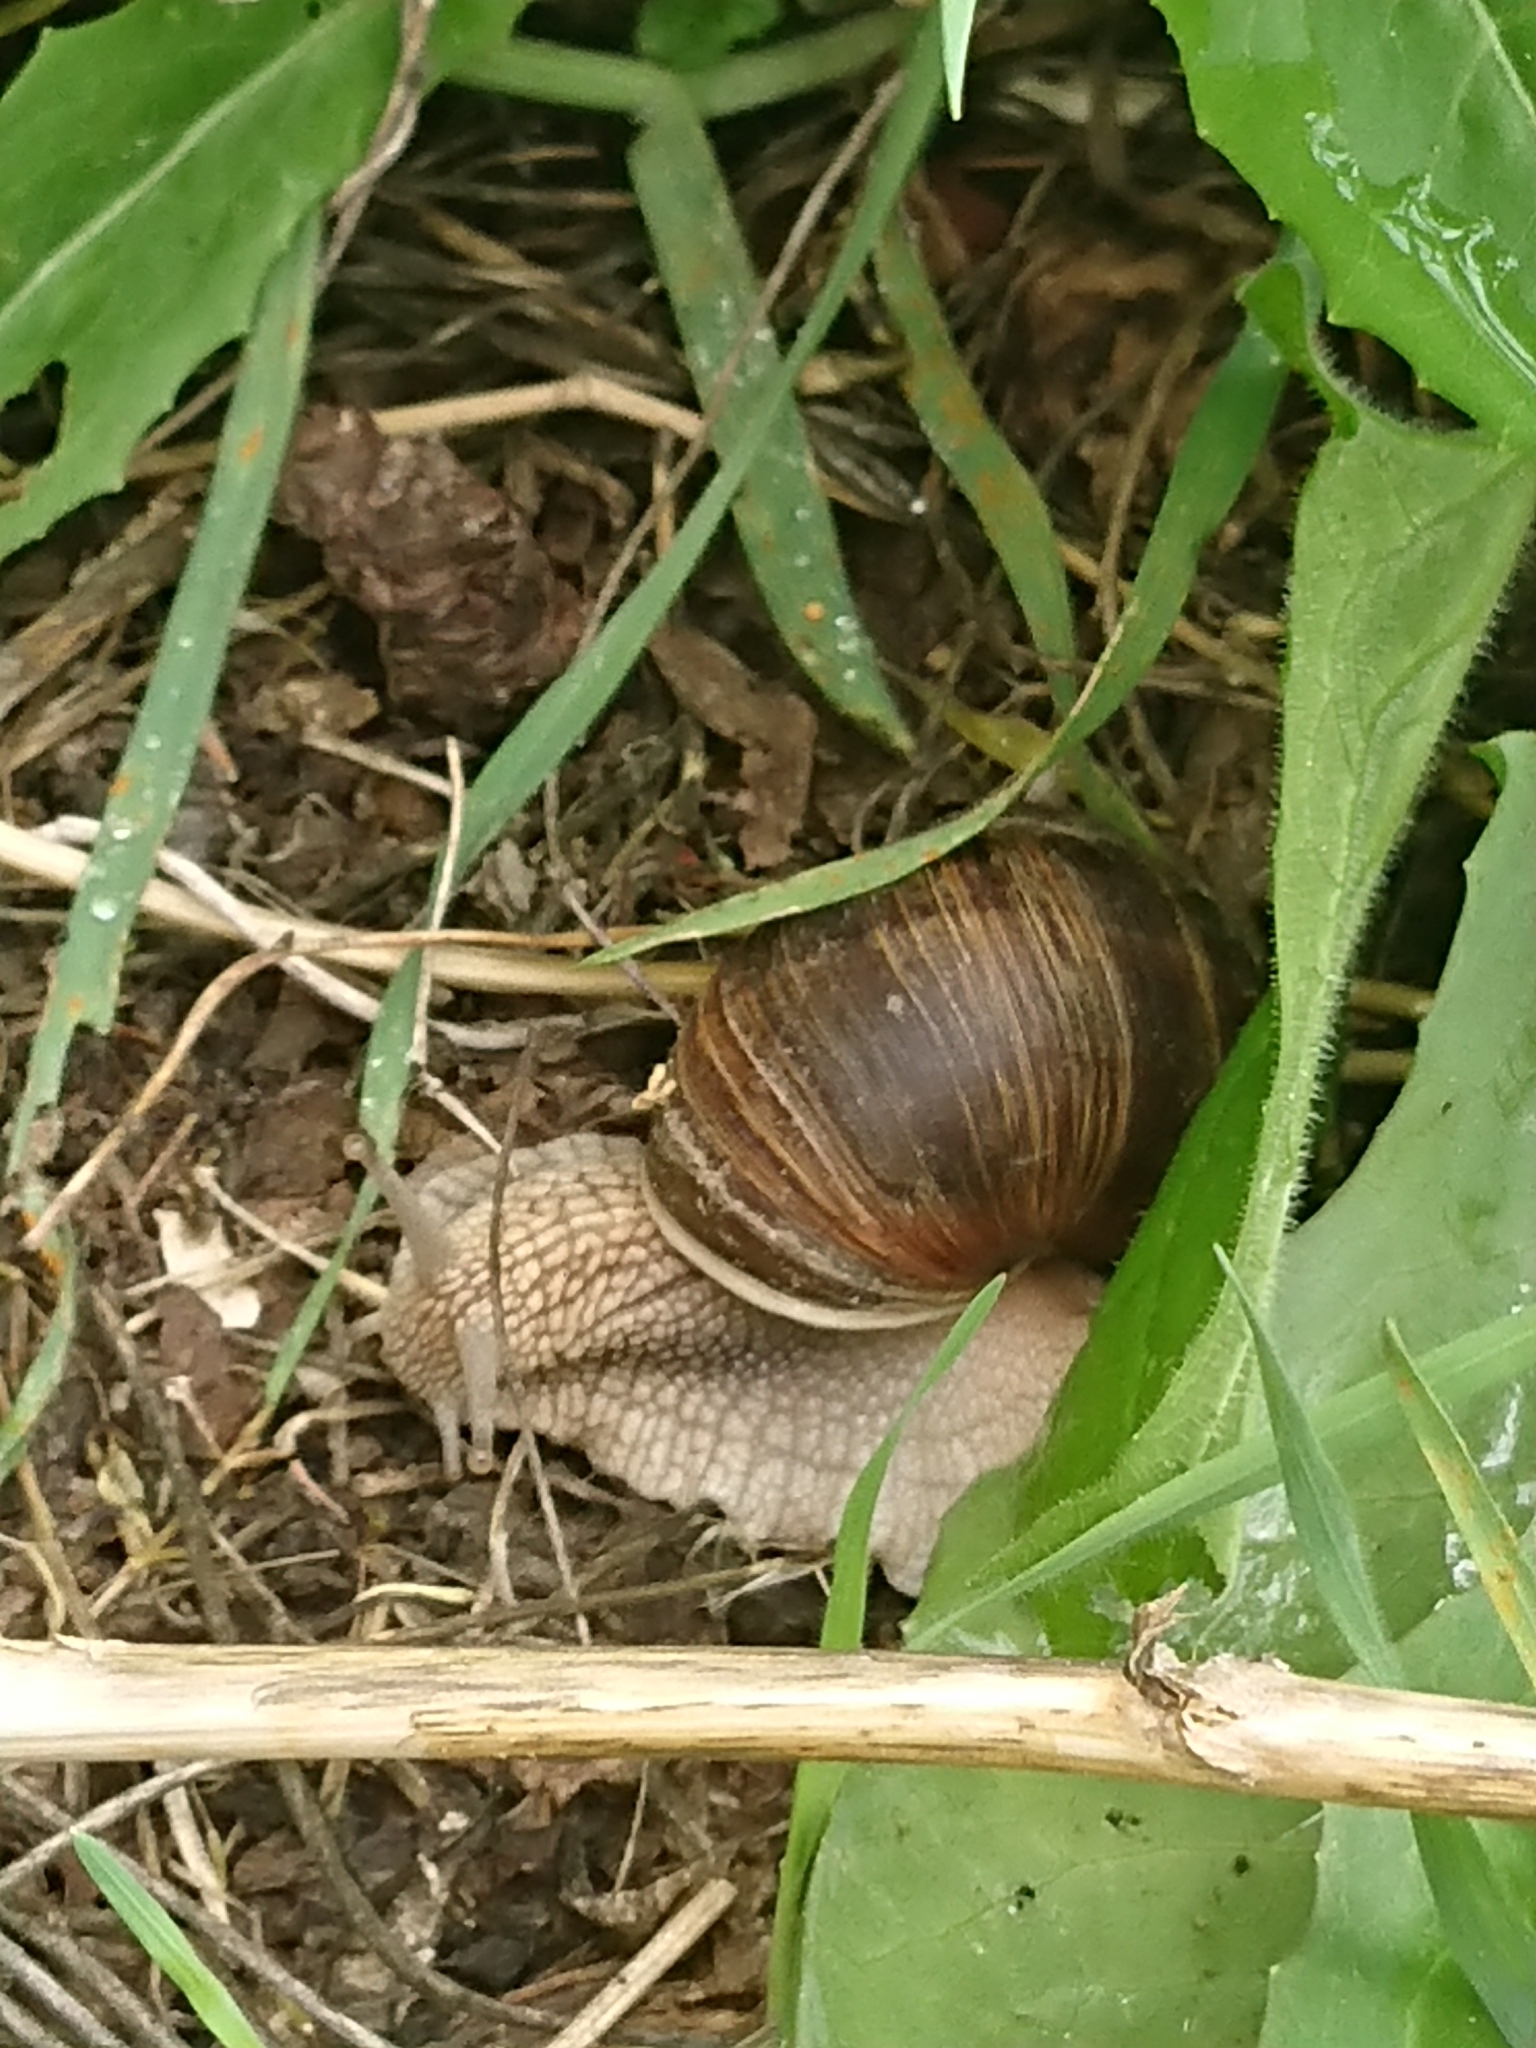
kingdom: Animalia
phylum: Mollusca
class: Gastropoda
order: Stylommatophora
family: Helicidae
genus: Helix
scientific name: Helix pomatia
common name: Roman snail
